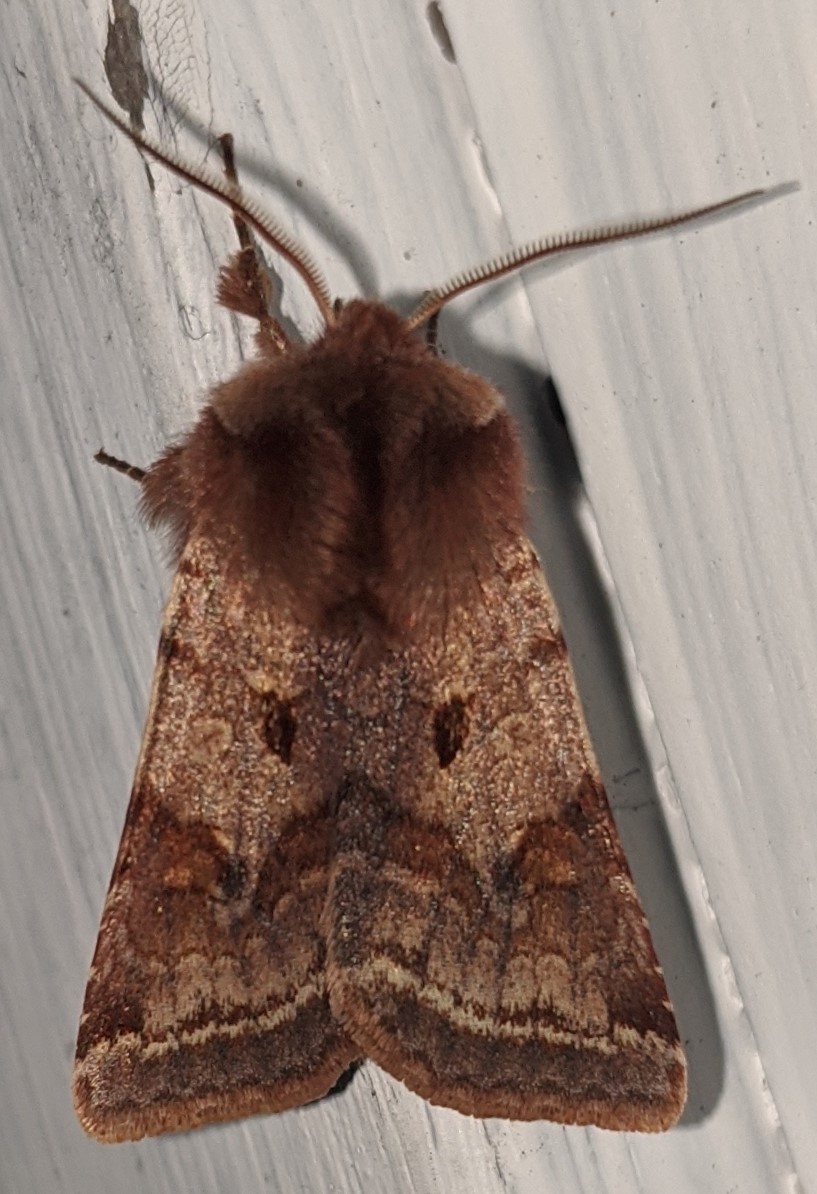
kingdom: Animalia
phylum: Arthropoda
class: Insecta
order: Lepidoptera
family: Noctuidae
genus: Cerastis
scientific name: Cerastis salicarum
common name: Willow dart
